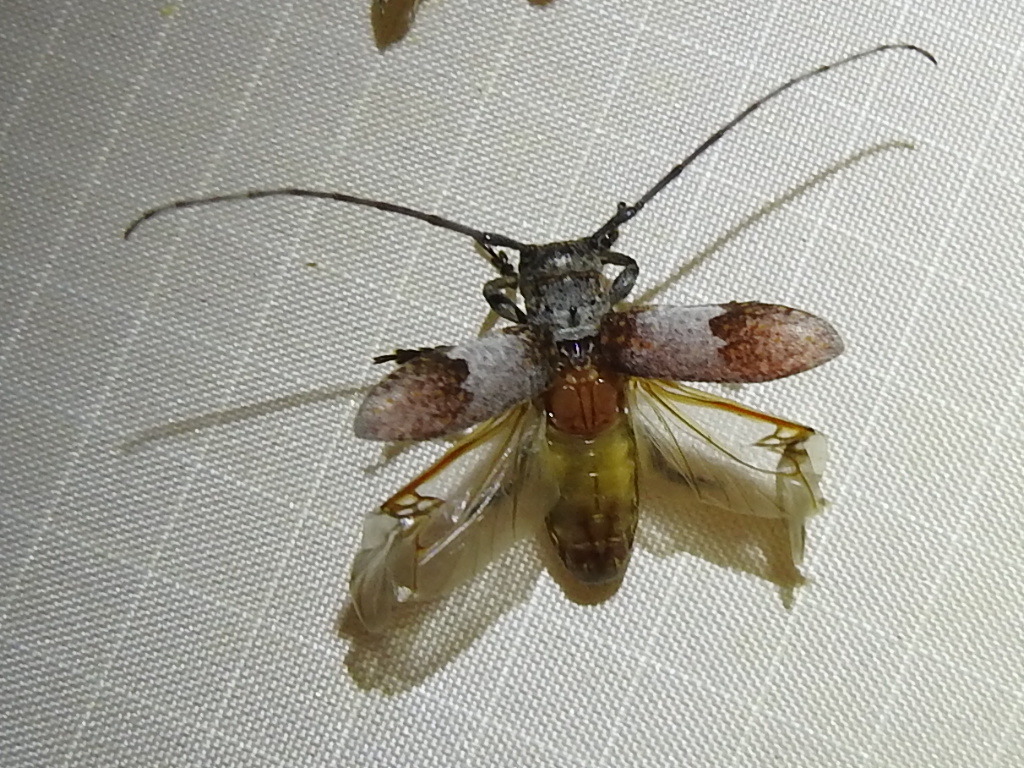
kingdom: Animalia
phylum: Arthropoda
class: Insecta
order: Coleoptera
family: Cerambycidae
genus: Oncideres
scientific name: Oncideres cingulata
